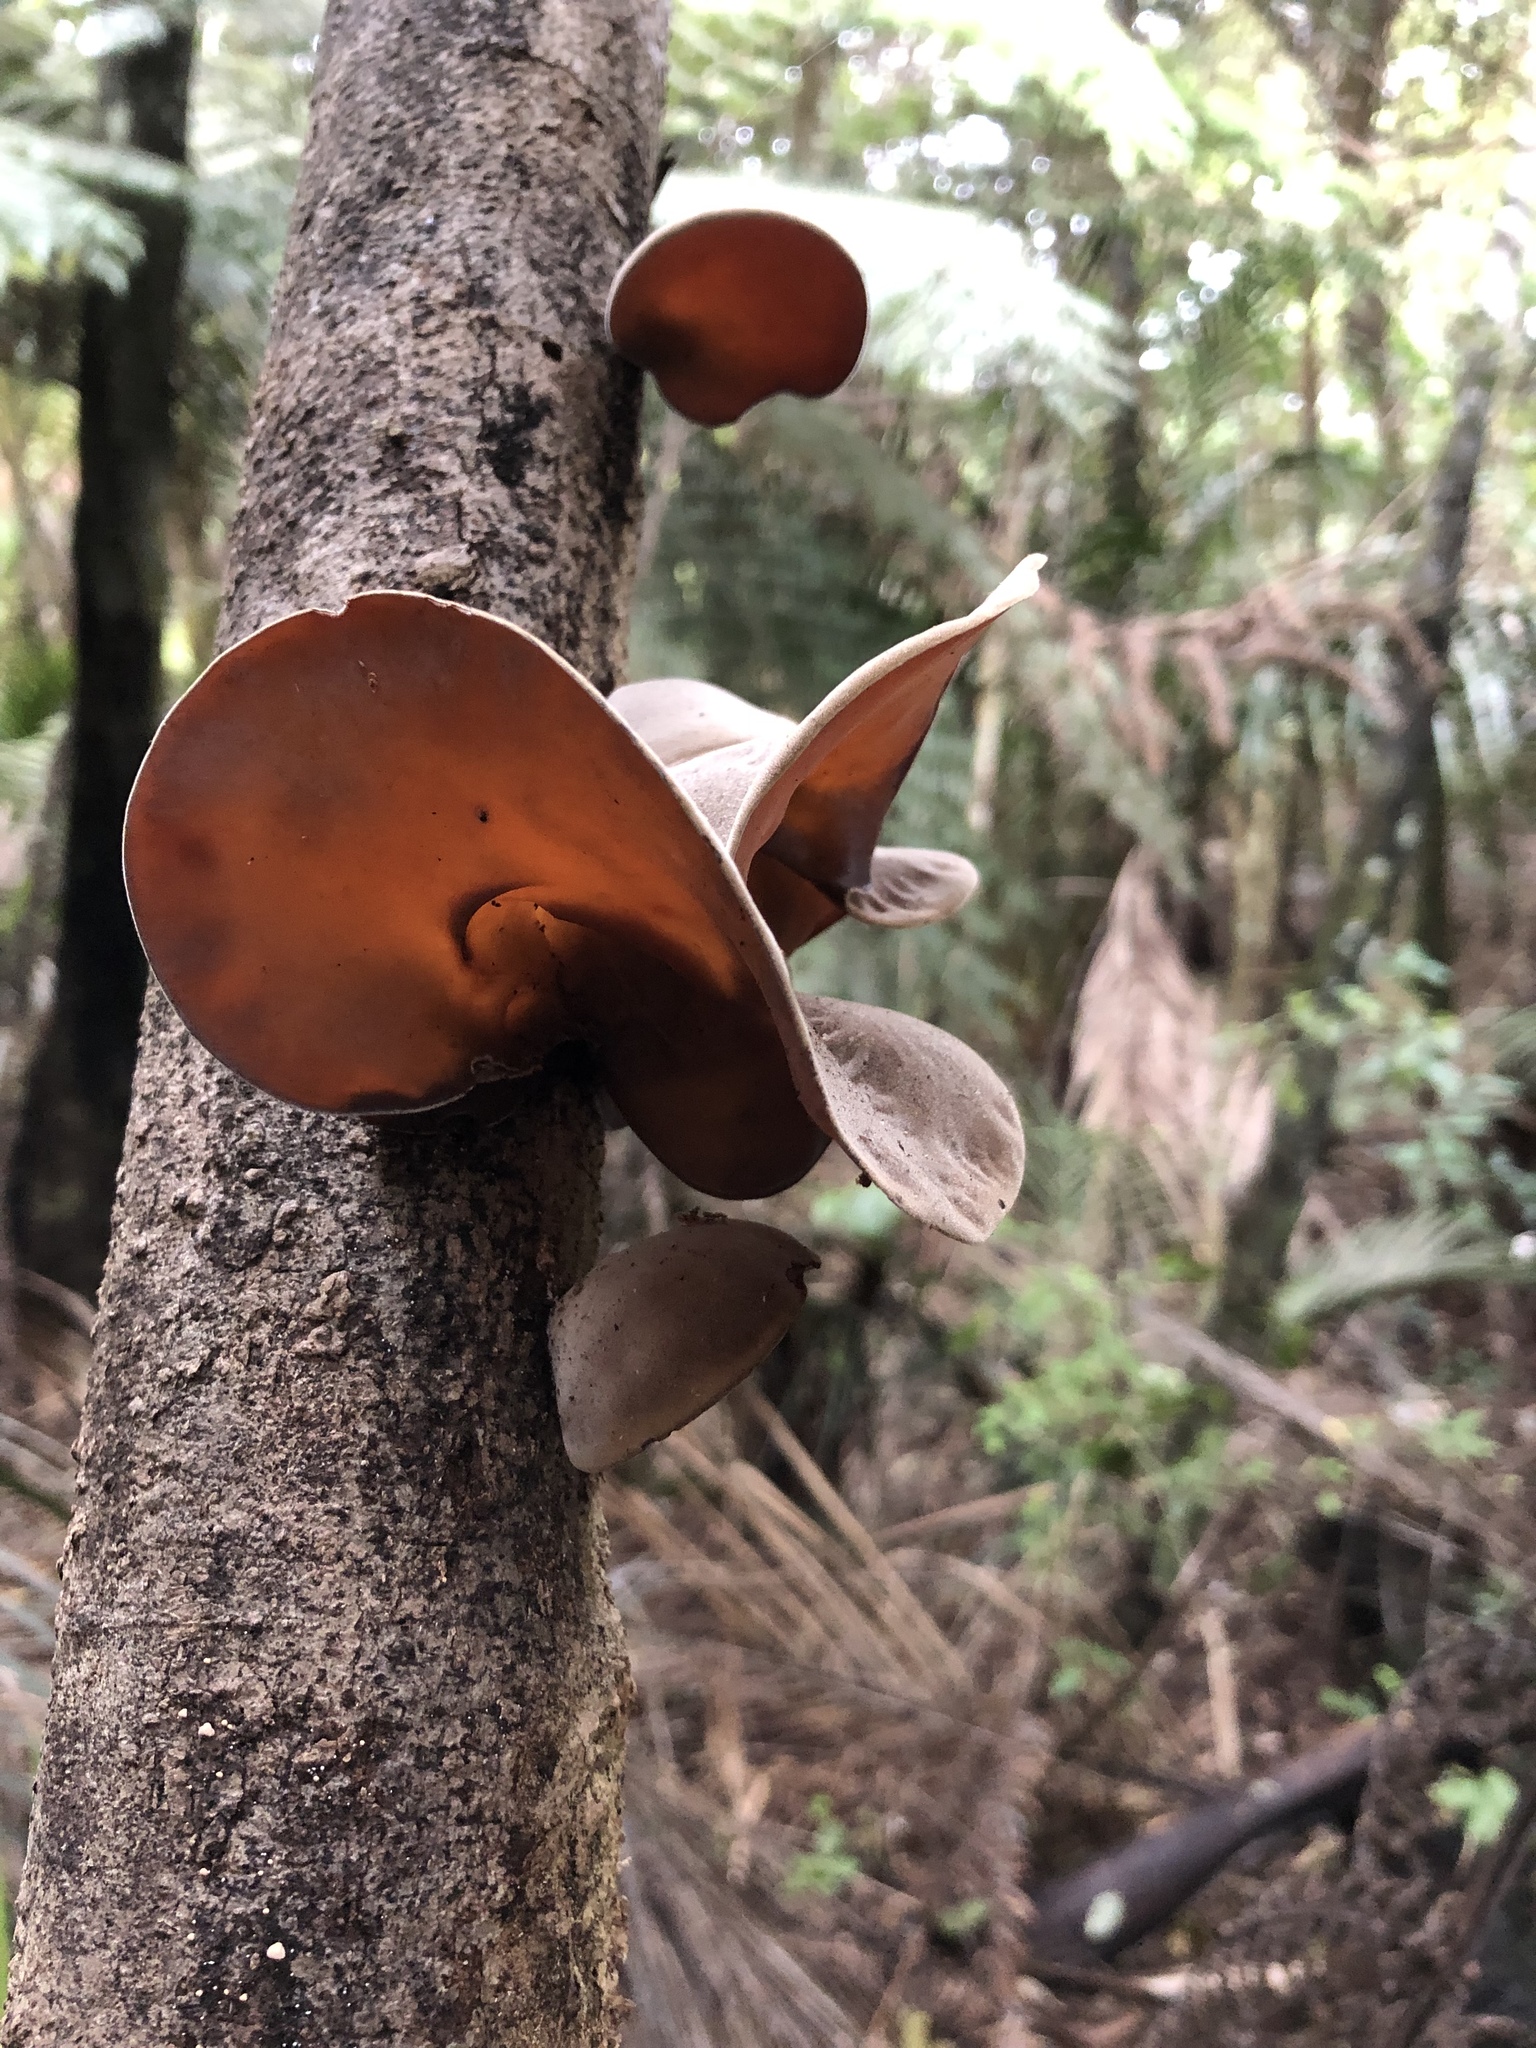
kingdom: Fungi
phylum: Basidiomycota
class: Agaricomycetes
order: Auriculariales
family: Auriculariaceae
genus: Auricularia
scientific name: Auricularia cornea
